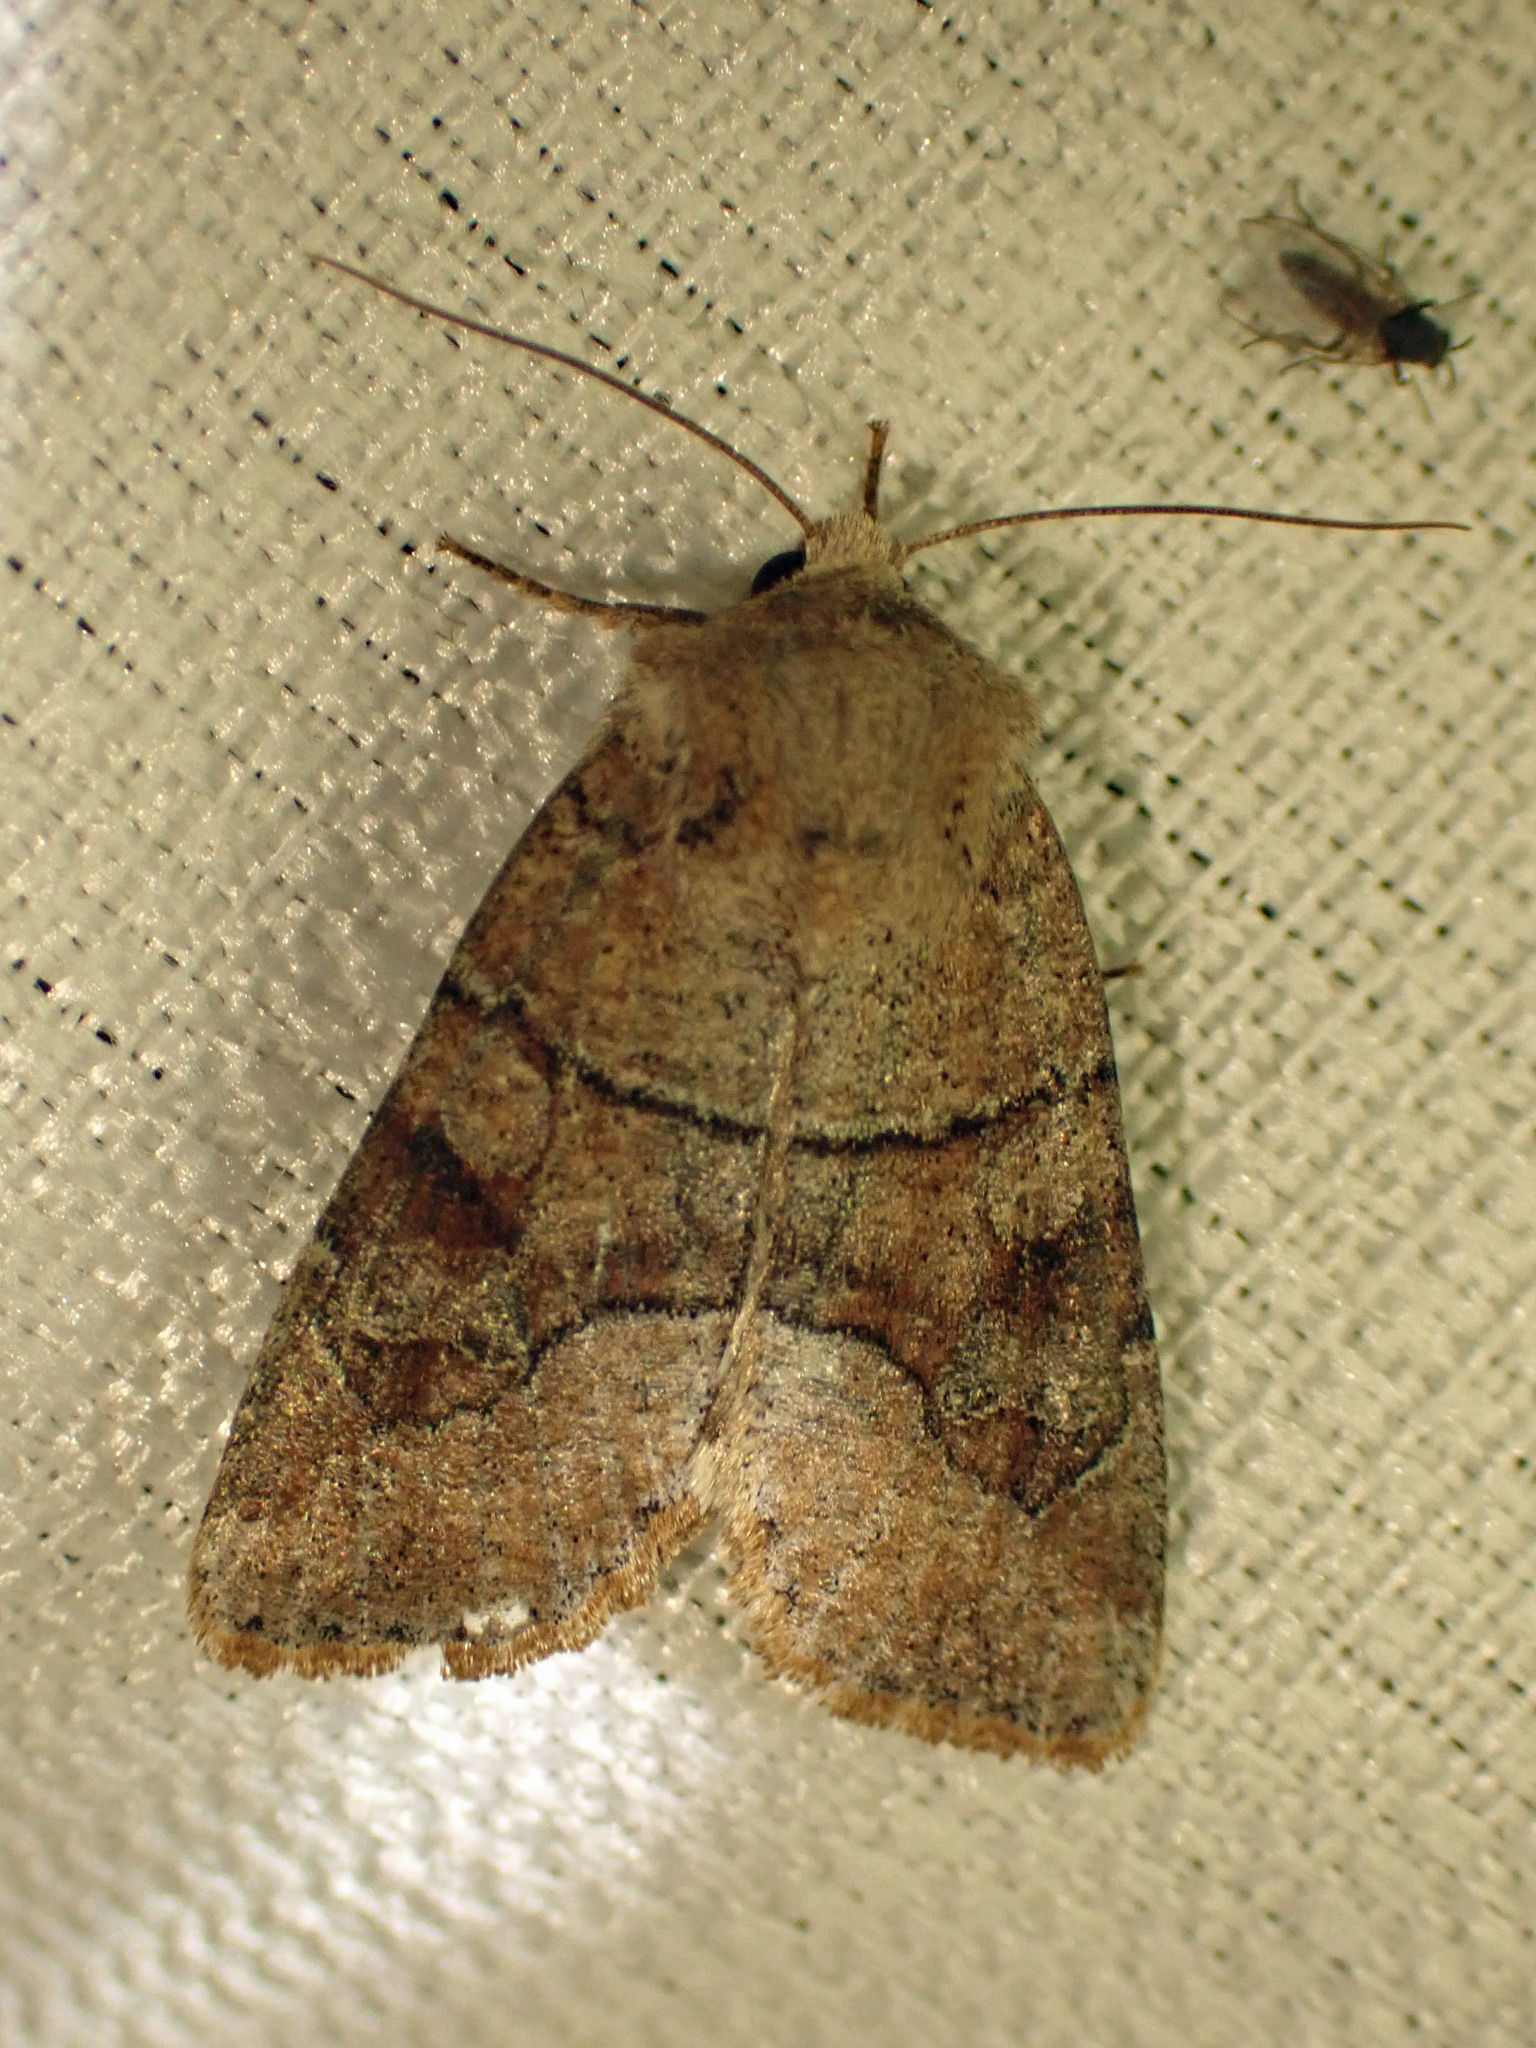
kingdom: Animalia
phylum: Arthropoda
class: Insecta
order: Lepidoptera
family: Noctuidae
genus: Crocigrapha
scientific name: Crocigrapha normani
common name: Norman's quaker
